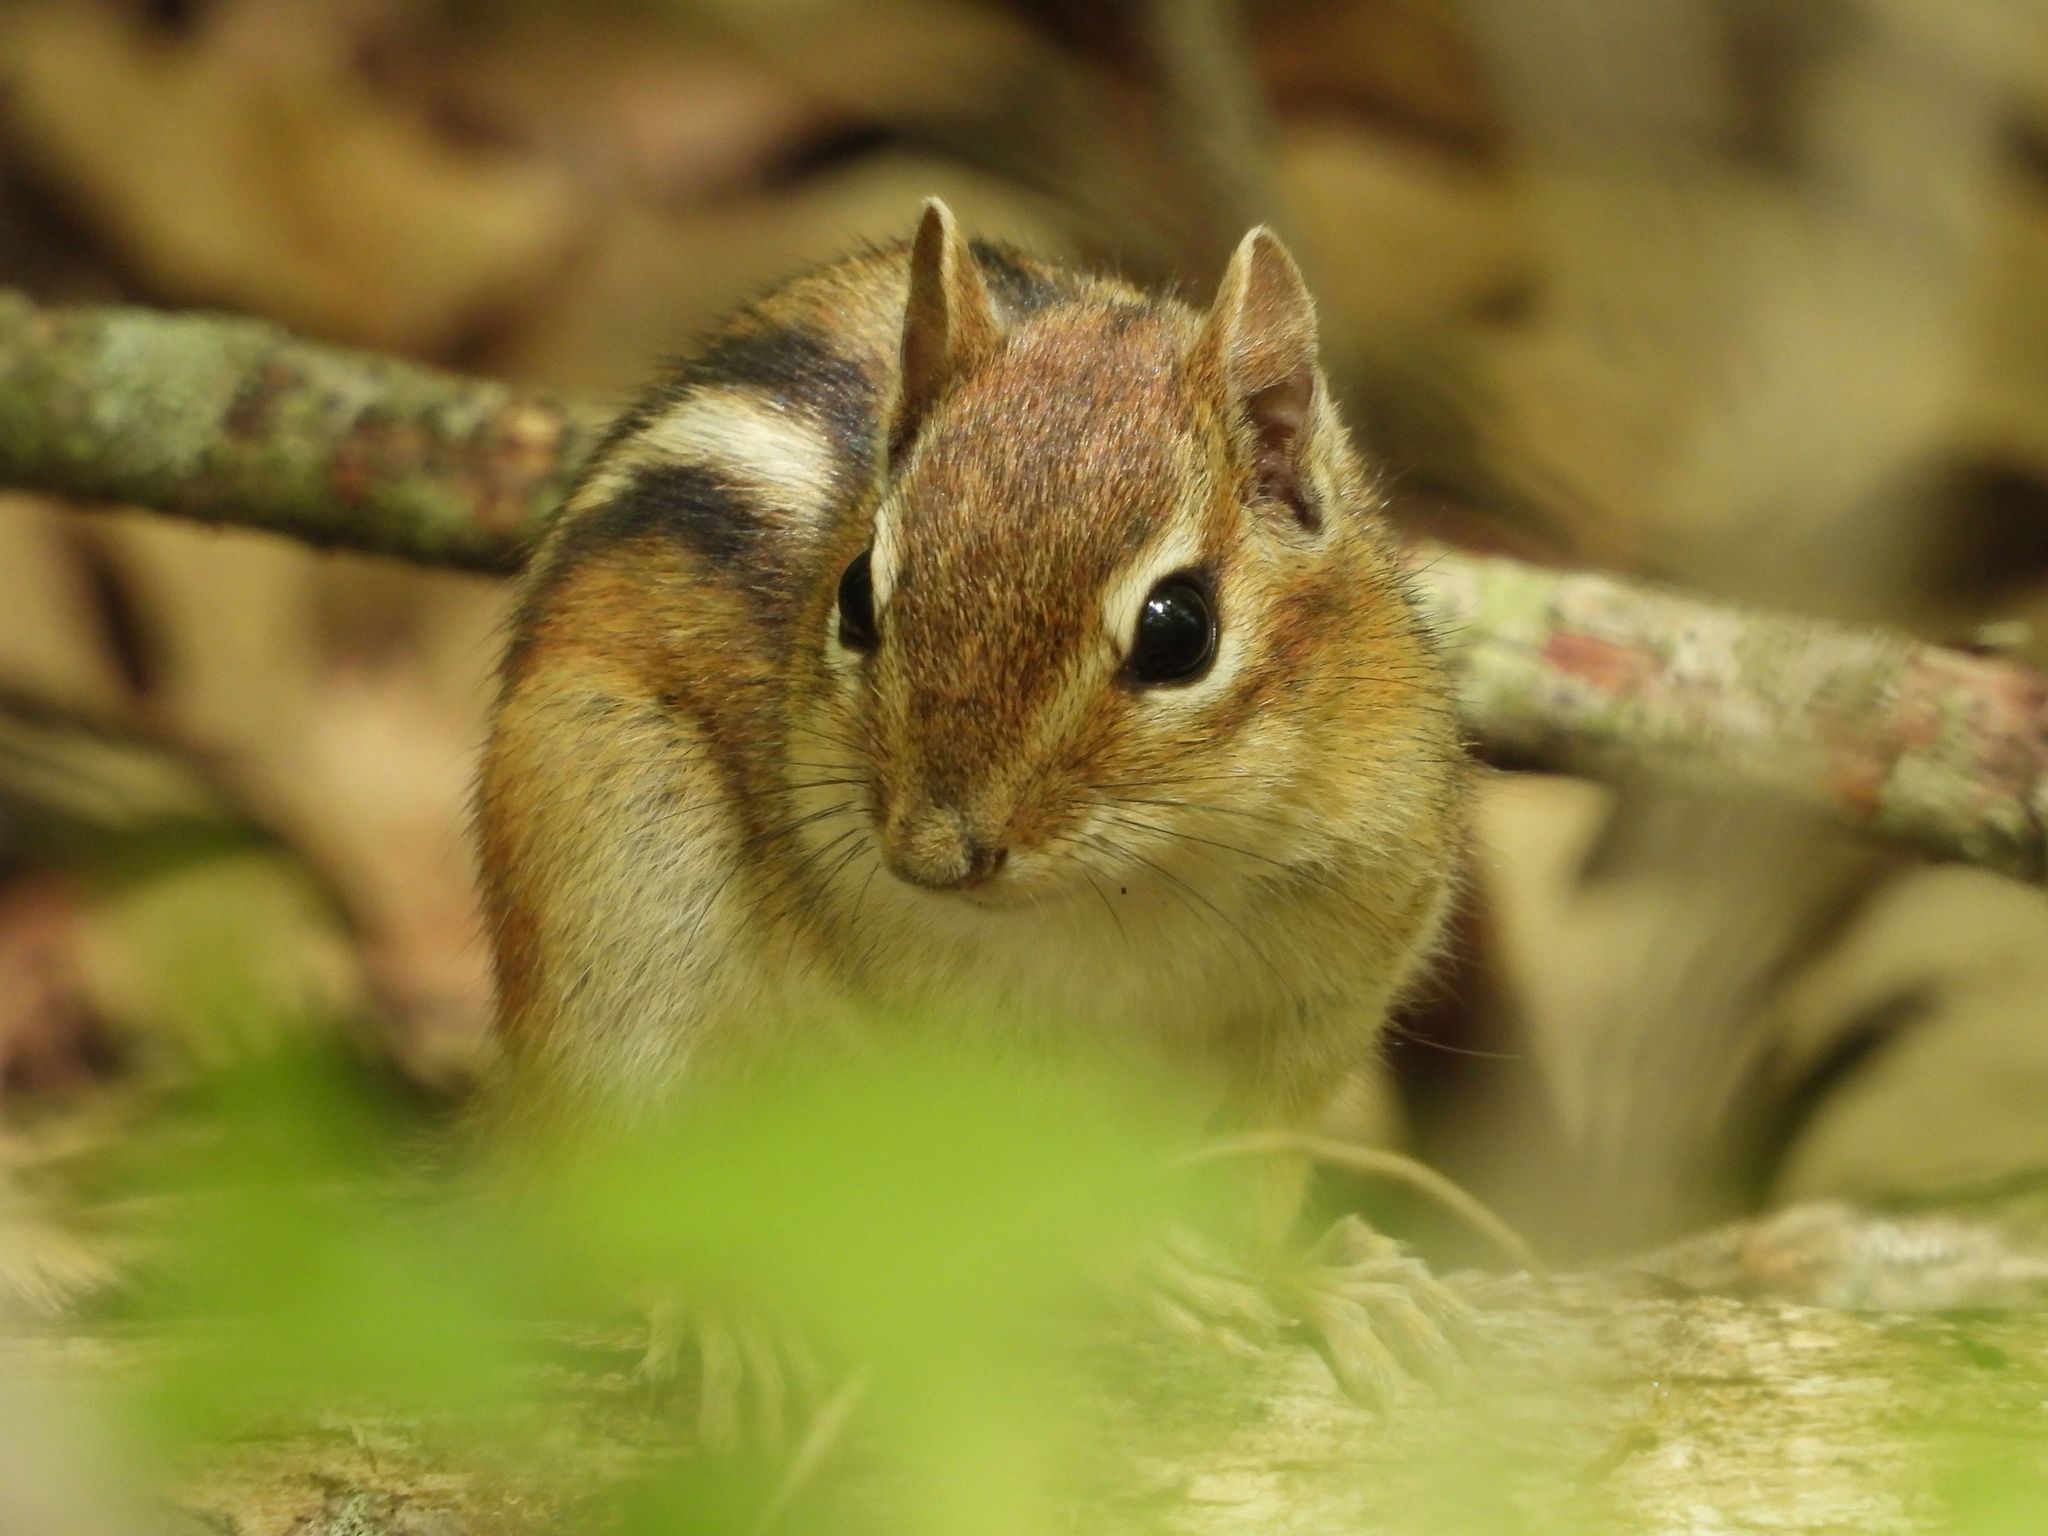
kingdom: Animalia
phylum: Chordata
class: Mammalia
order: Rodentia
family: Sciuridae
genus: Tamias
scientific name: Tamias striatus
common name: Eastern chipmunk
